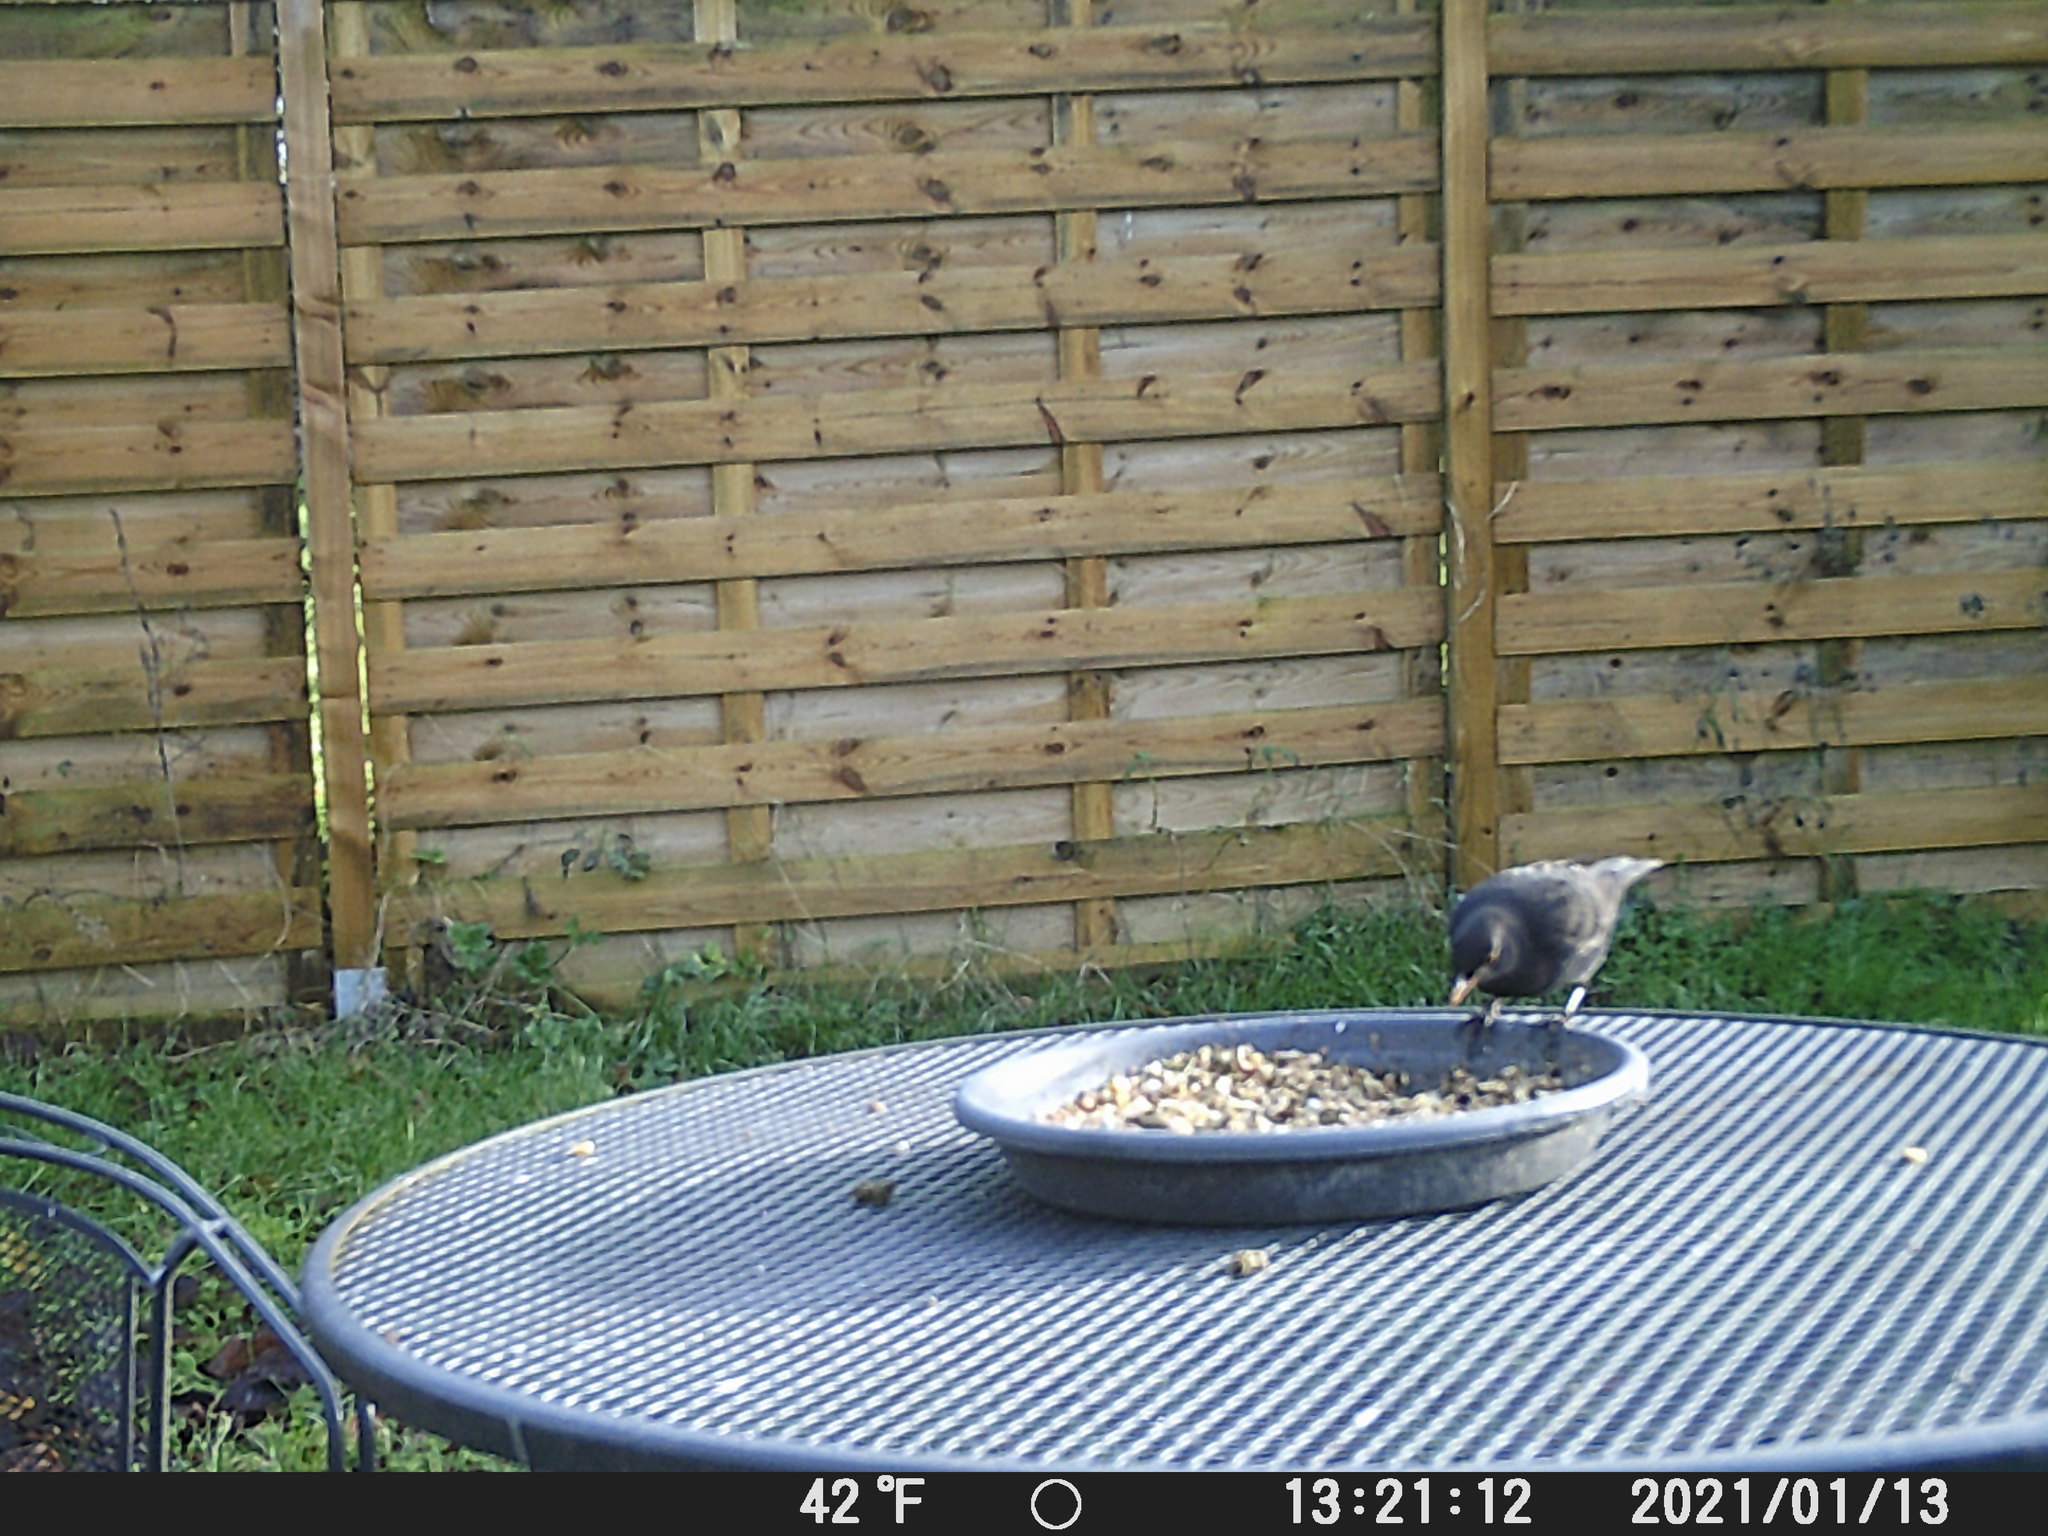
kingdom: Animalia
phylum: Chordata
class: Aves
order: Passeriformes
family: Turdidae
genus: Turdus
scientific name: Turdus merula
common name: Common blackbird
